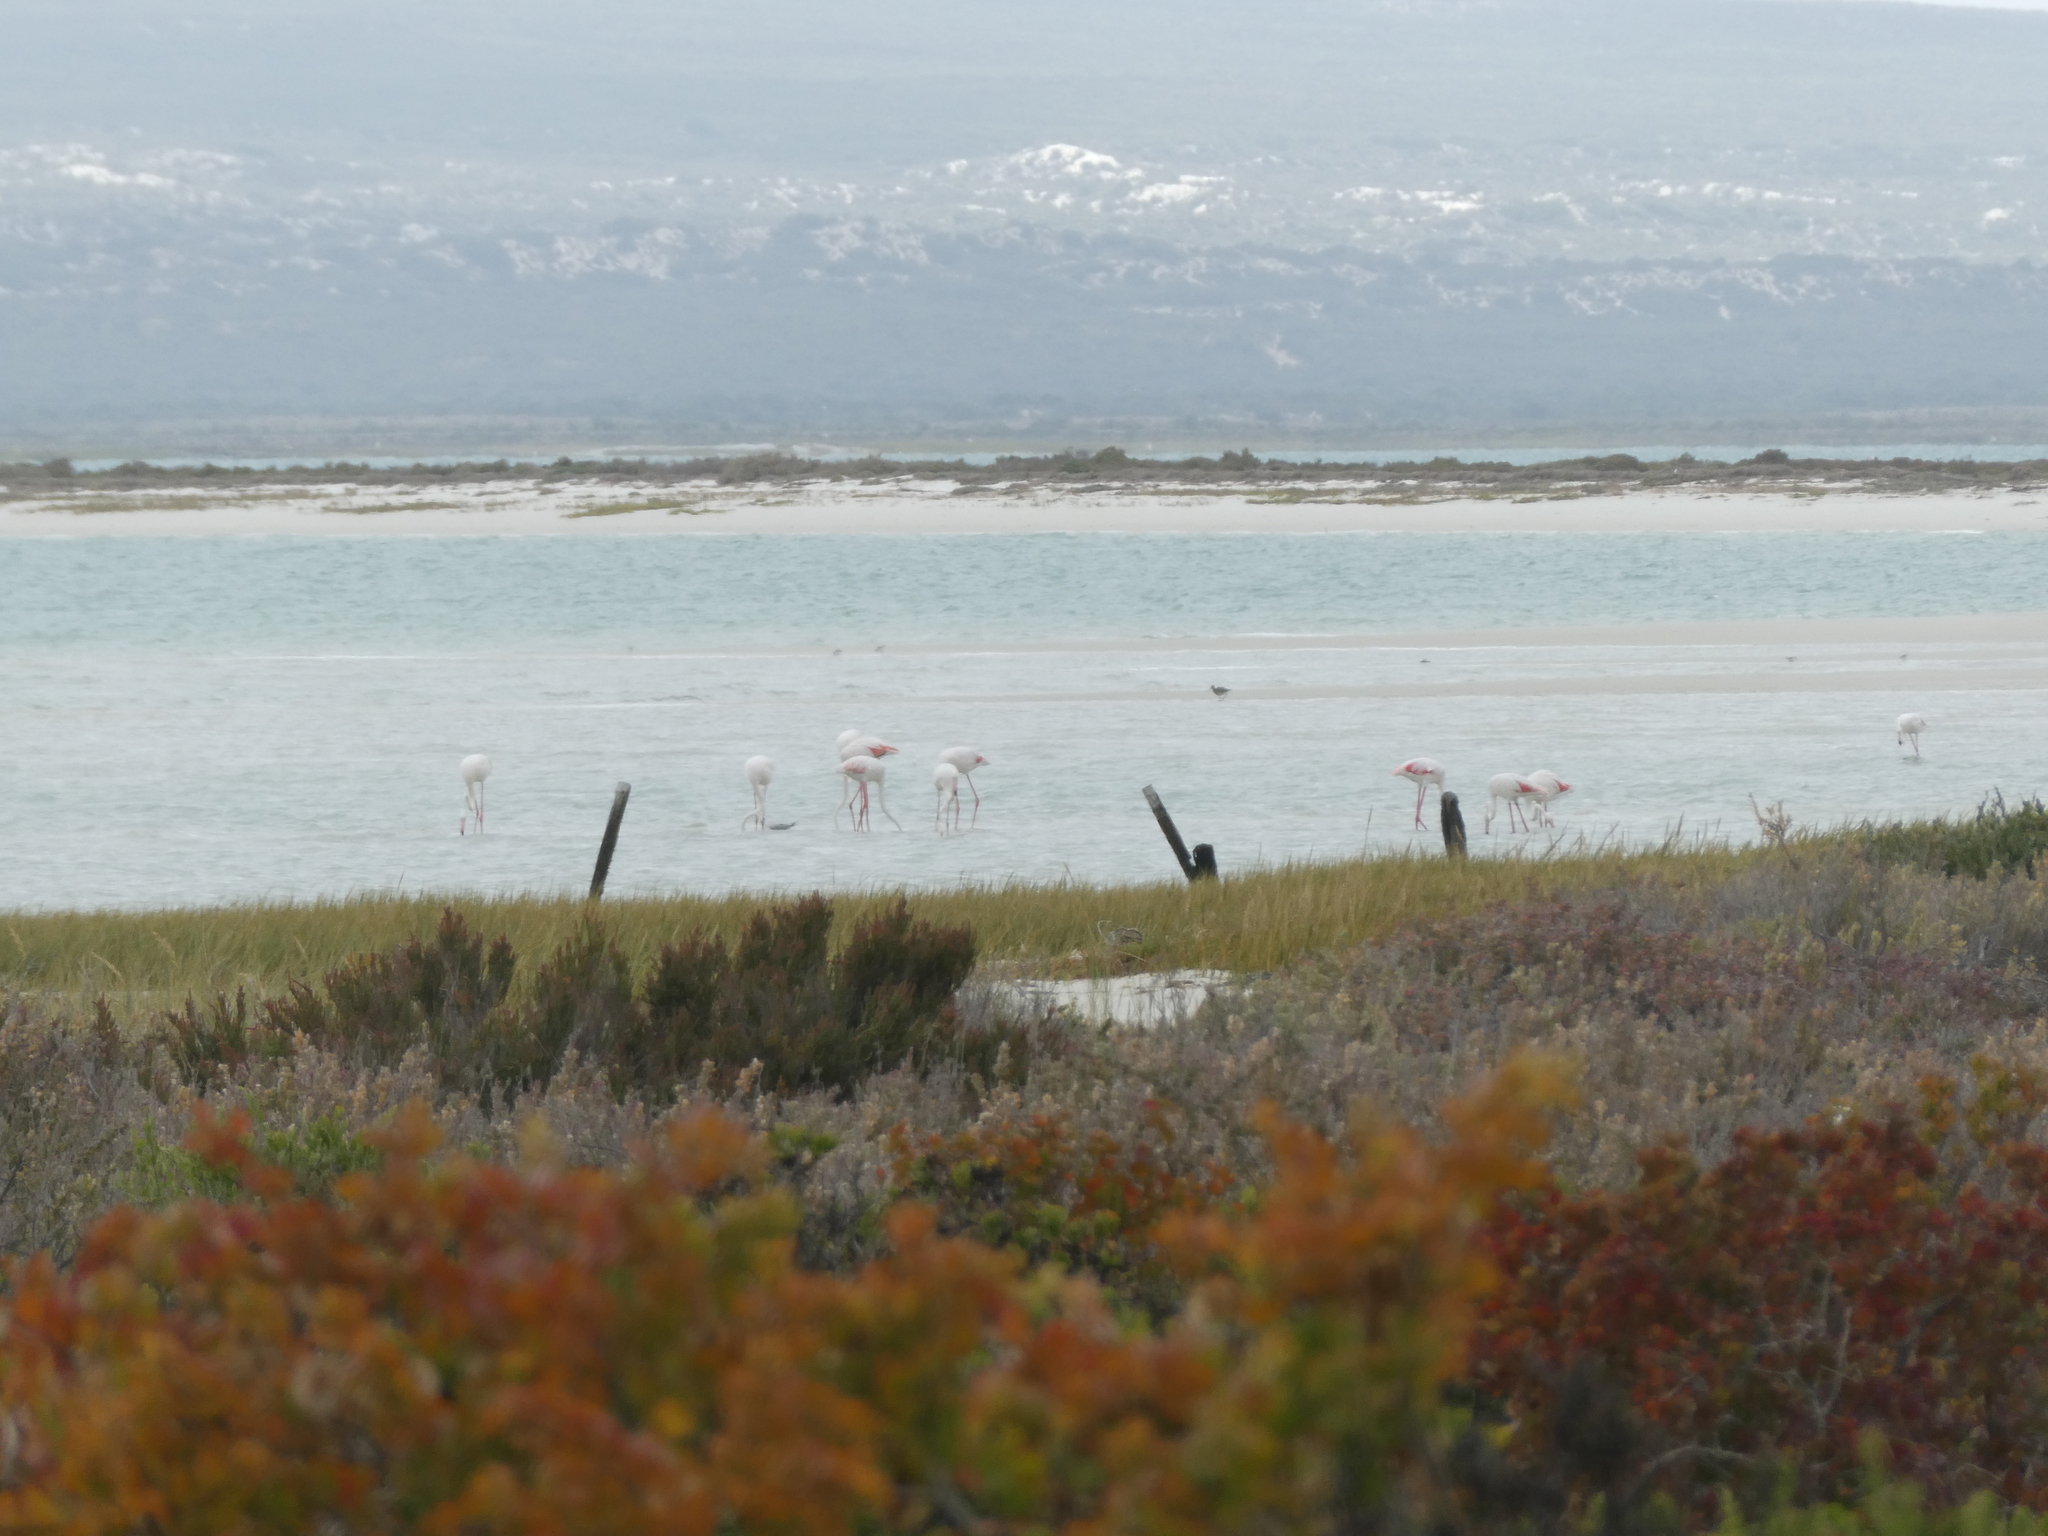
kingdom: Animalia
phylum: Chordata
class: Aves
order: Phoenicopteriformes
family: Phoenicopteridae
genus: Phoenicopterus
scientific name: Phoenicopterus roseus
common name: Greater flamingo
